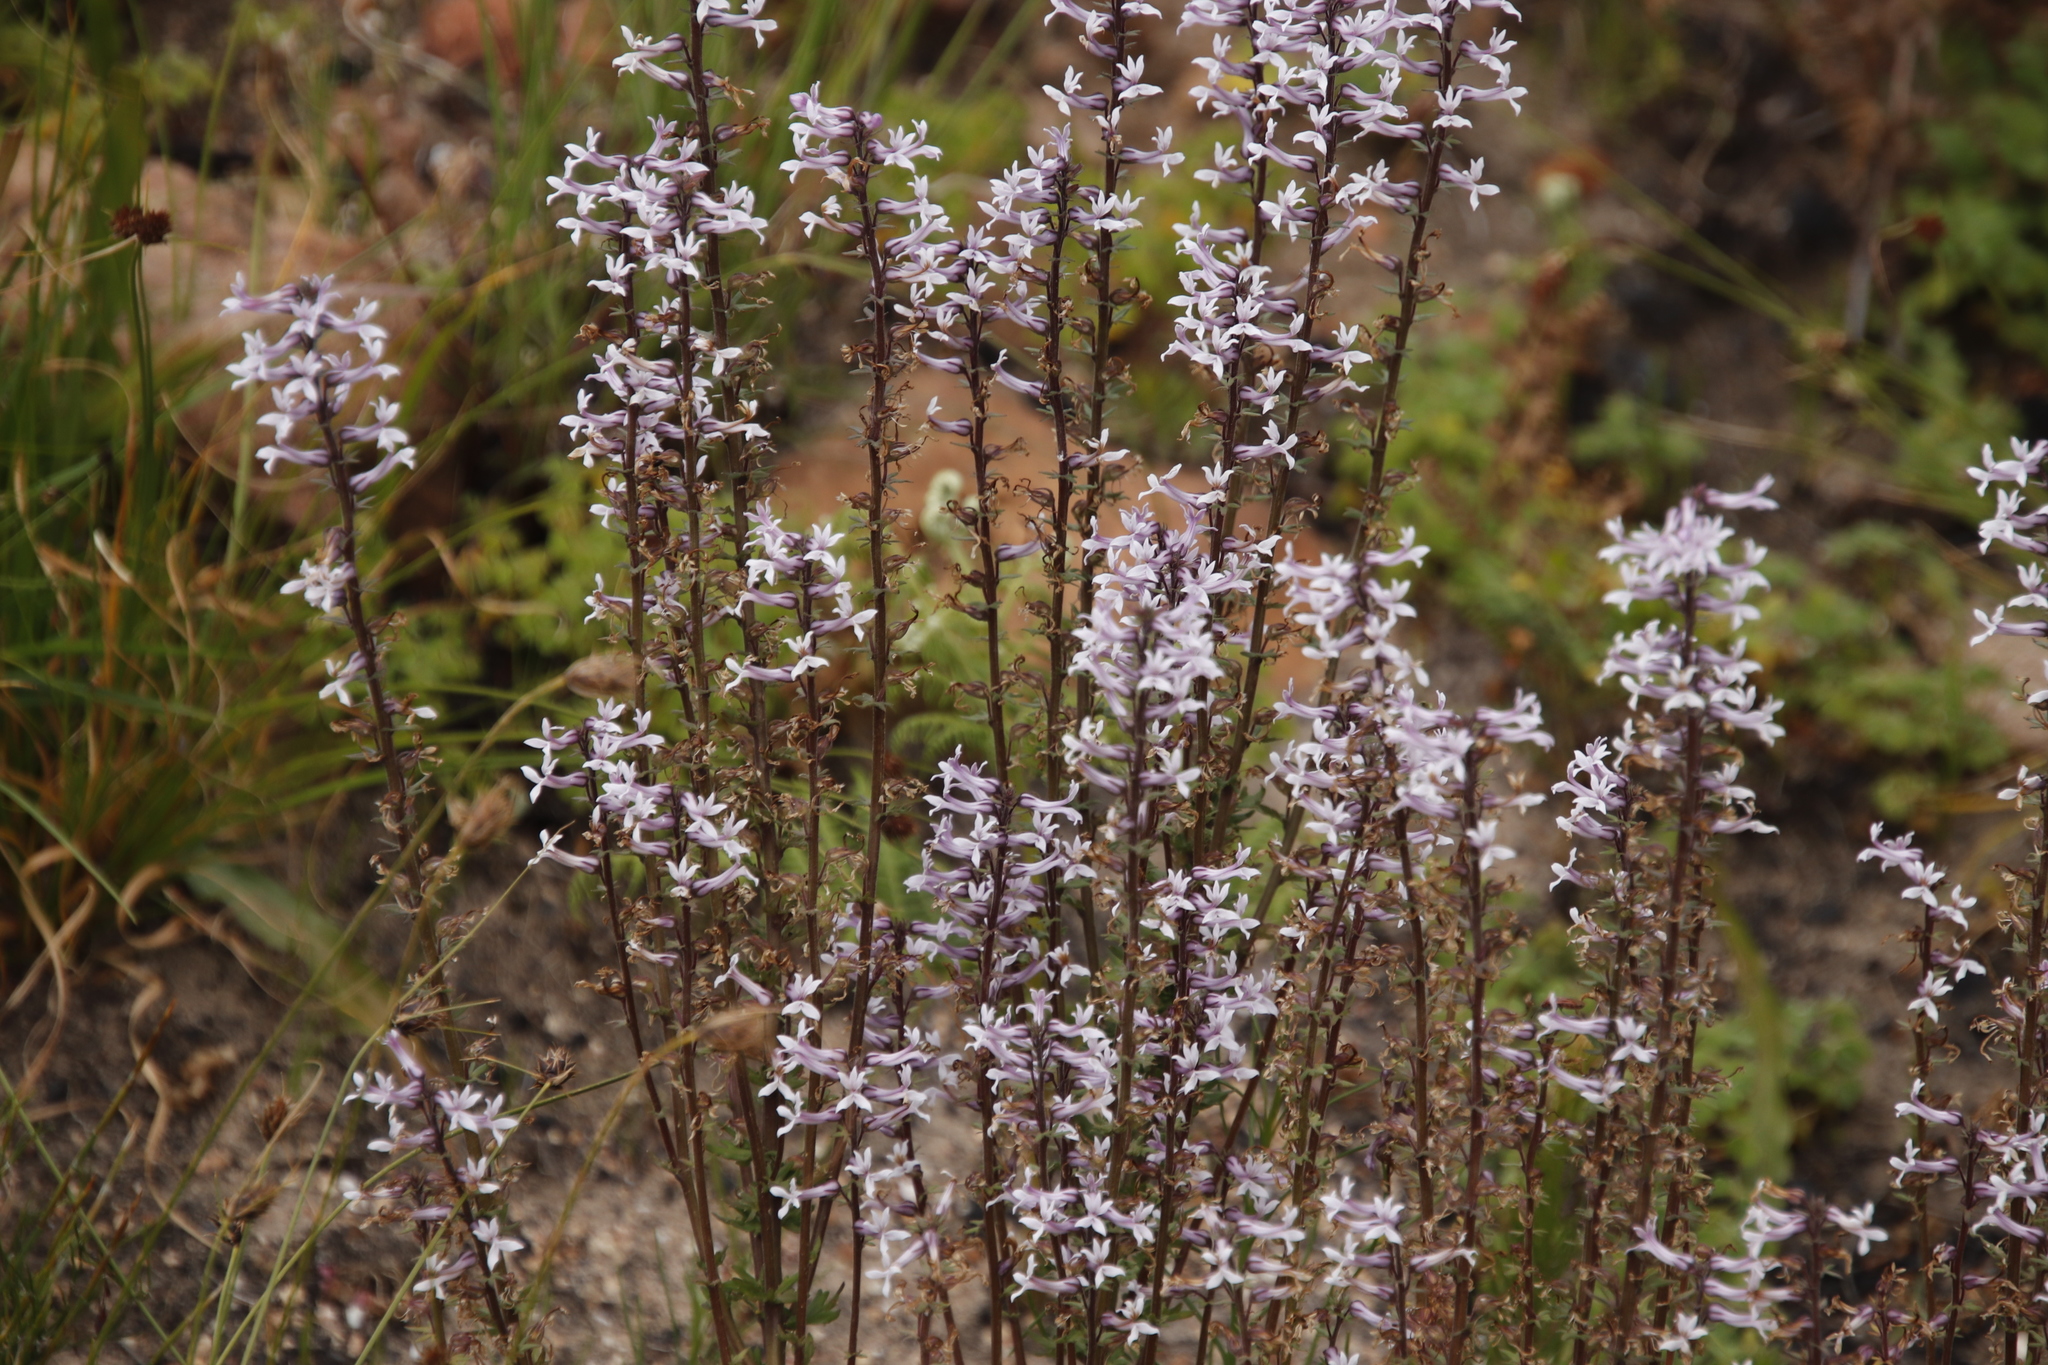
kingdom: Plantae
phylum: Tracheophyta
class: Magnoliopsida
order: Asterales
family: Campanulaceae
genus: Cyphia
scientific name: Cyphia bulbosa
